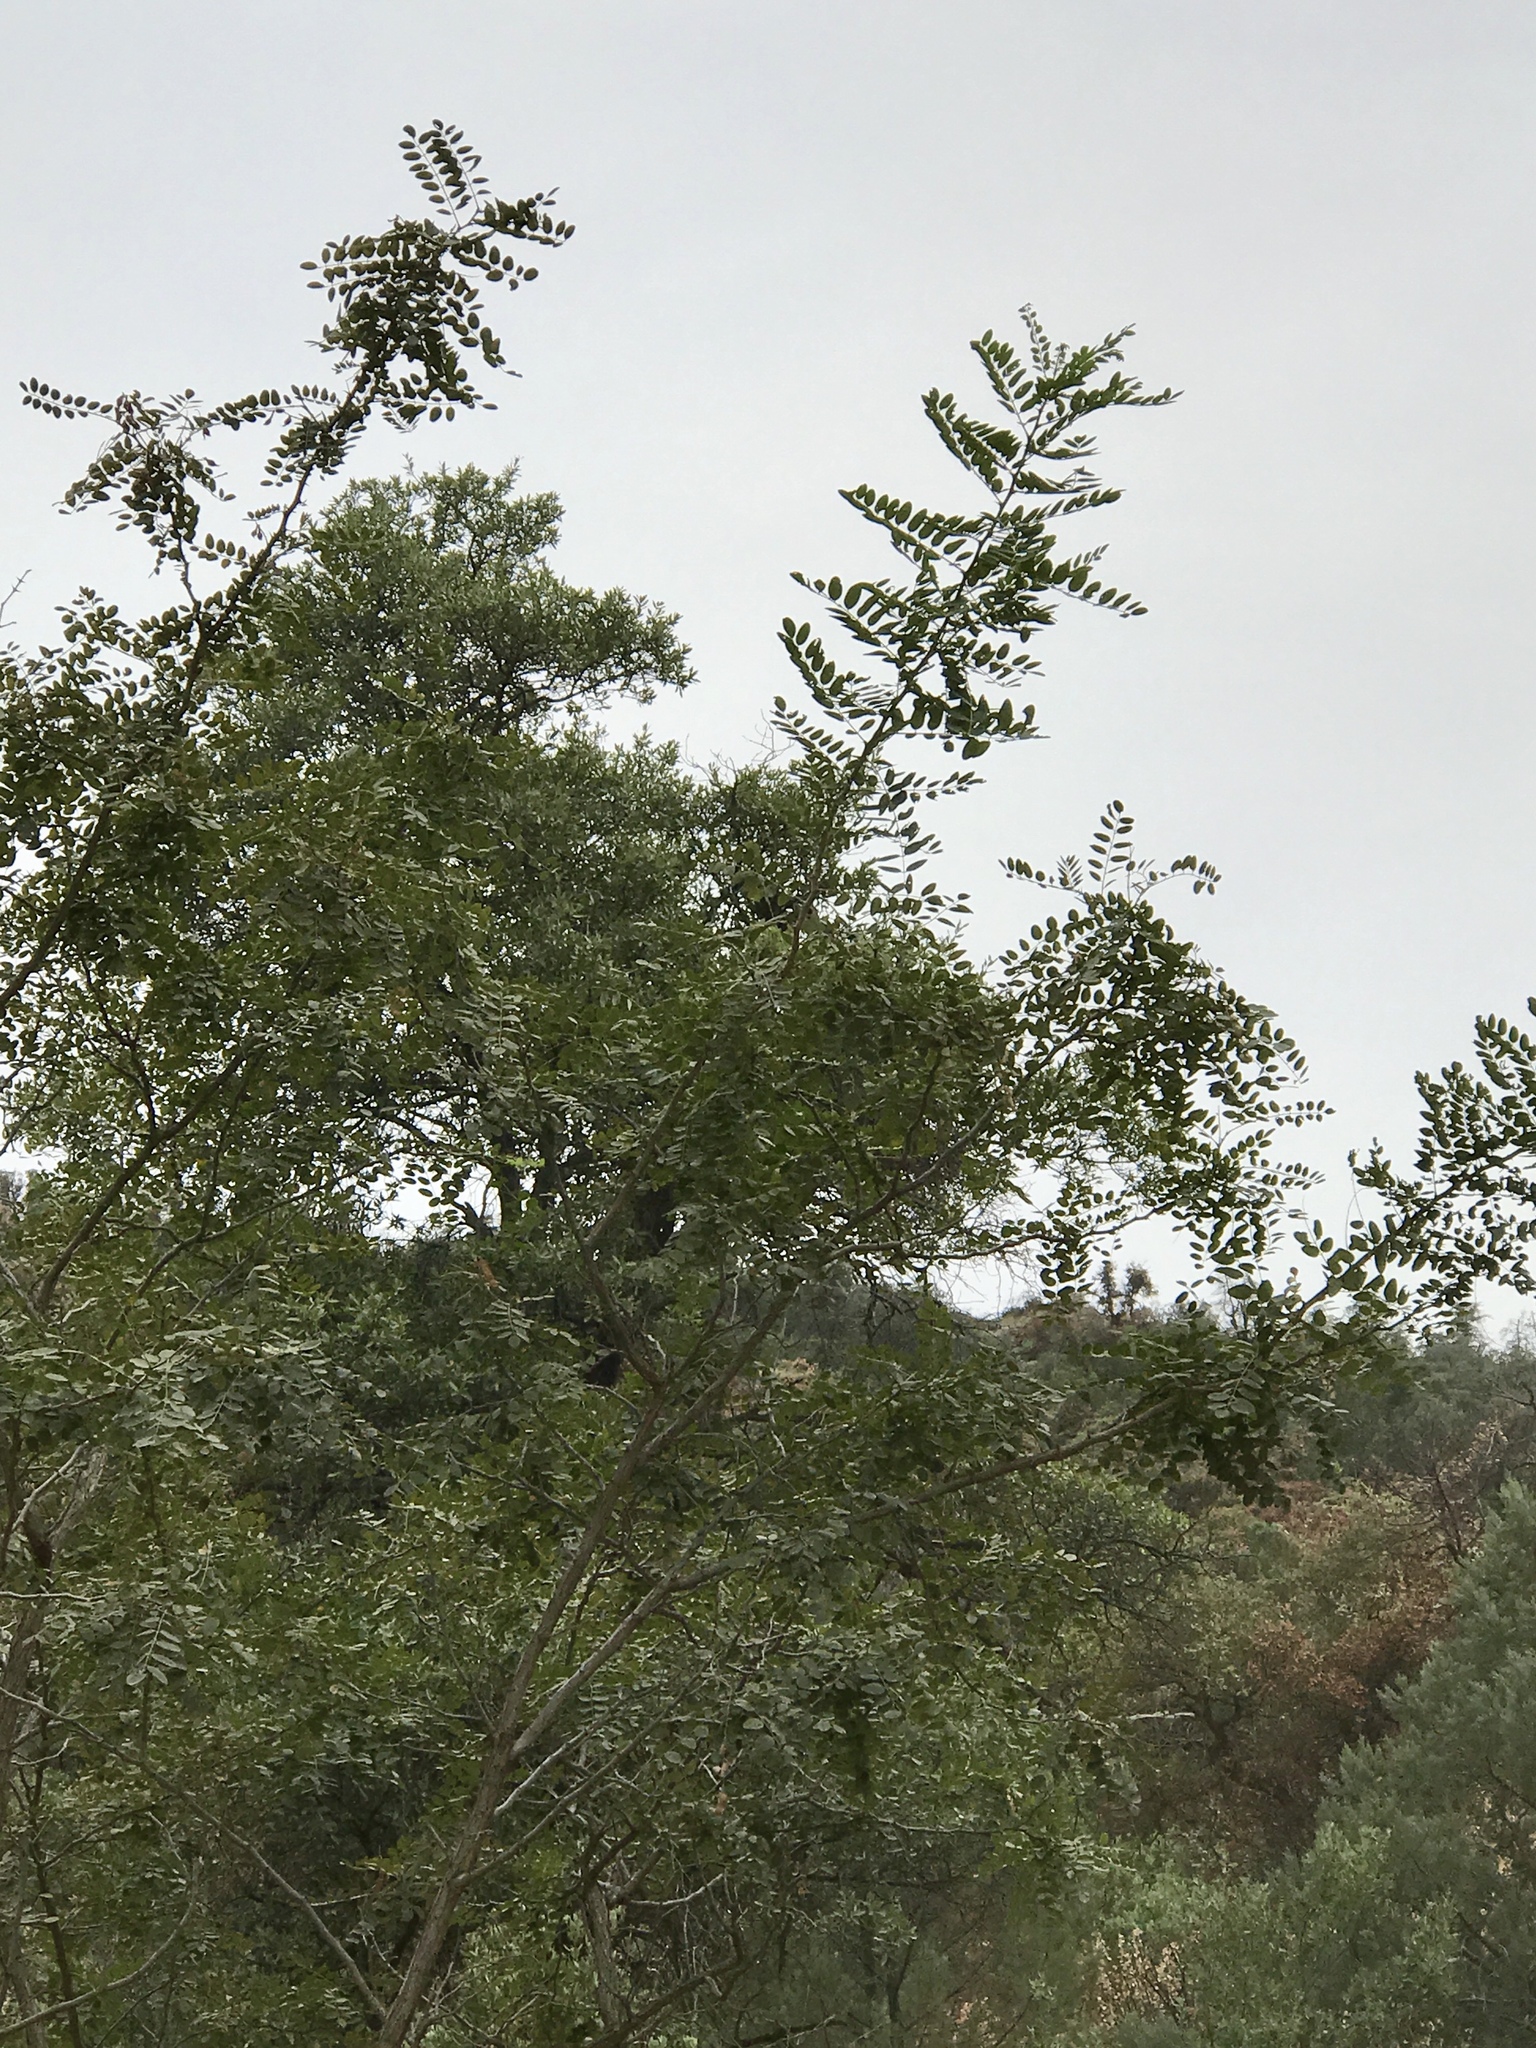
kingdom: Plantae
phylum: Tracheophyta
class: Magnoliopsida
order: Fagales
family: Juglandaceae
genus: Juglans
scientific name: Juglans major
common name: Arizona walnut
